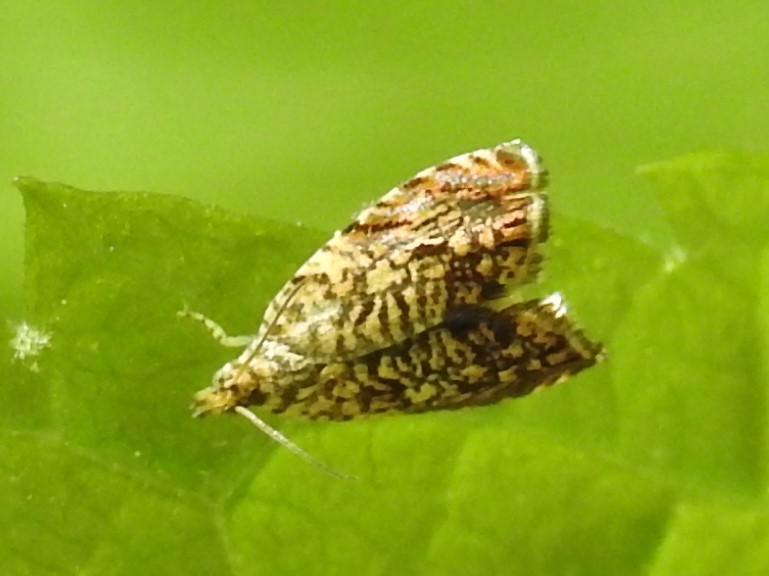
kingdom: Animalia
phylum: Arthropoda
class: Insecta
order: Lepidoptera
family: Tortricidae
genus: Dichrorampha
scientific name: Dichrorampha leopardana
